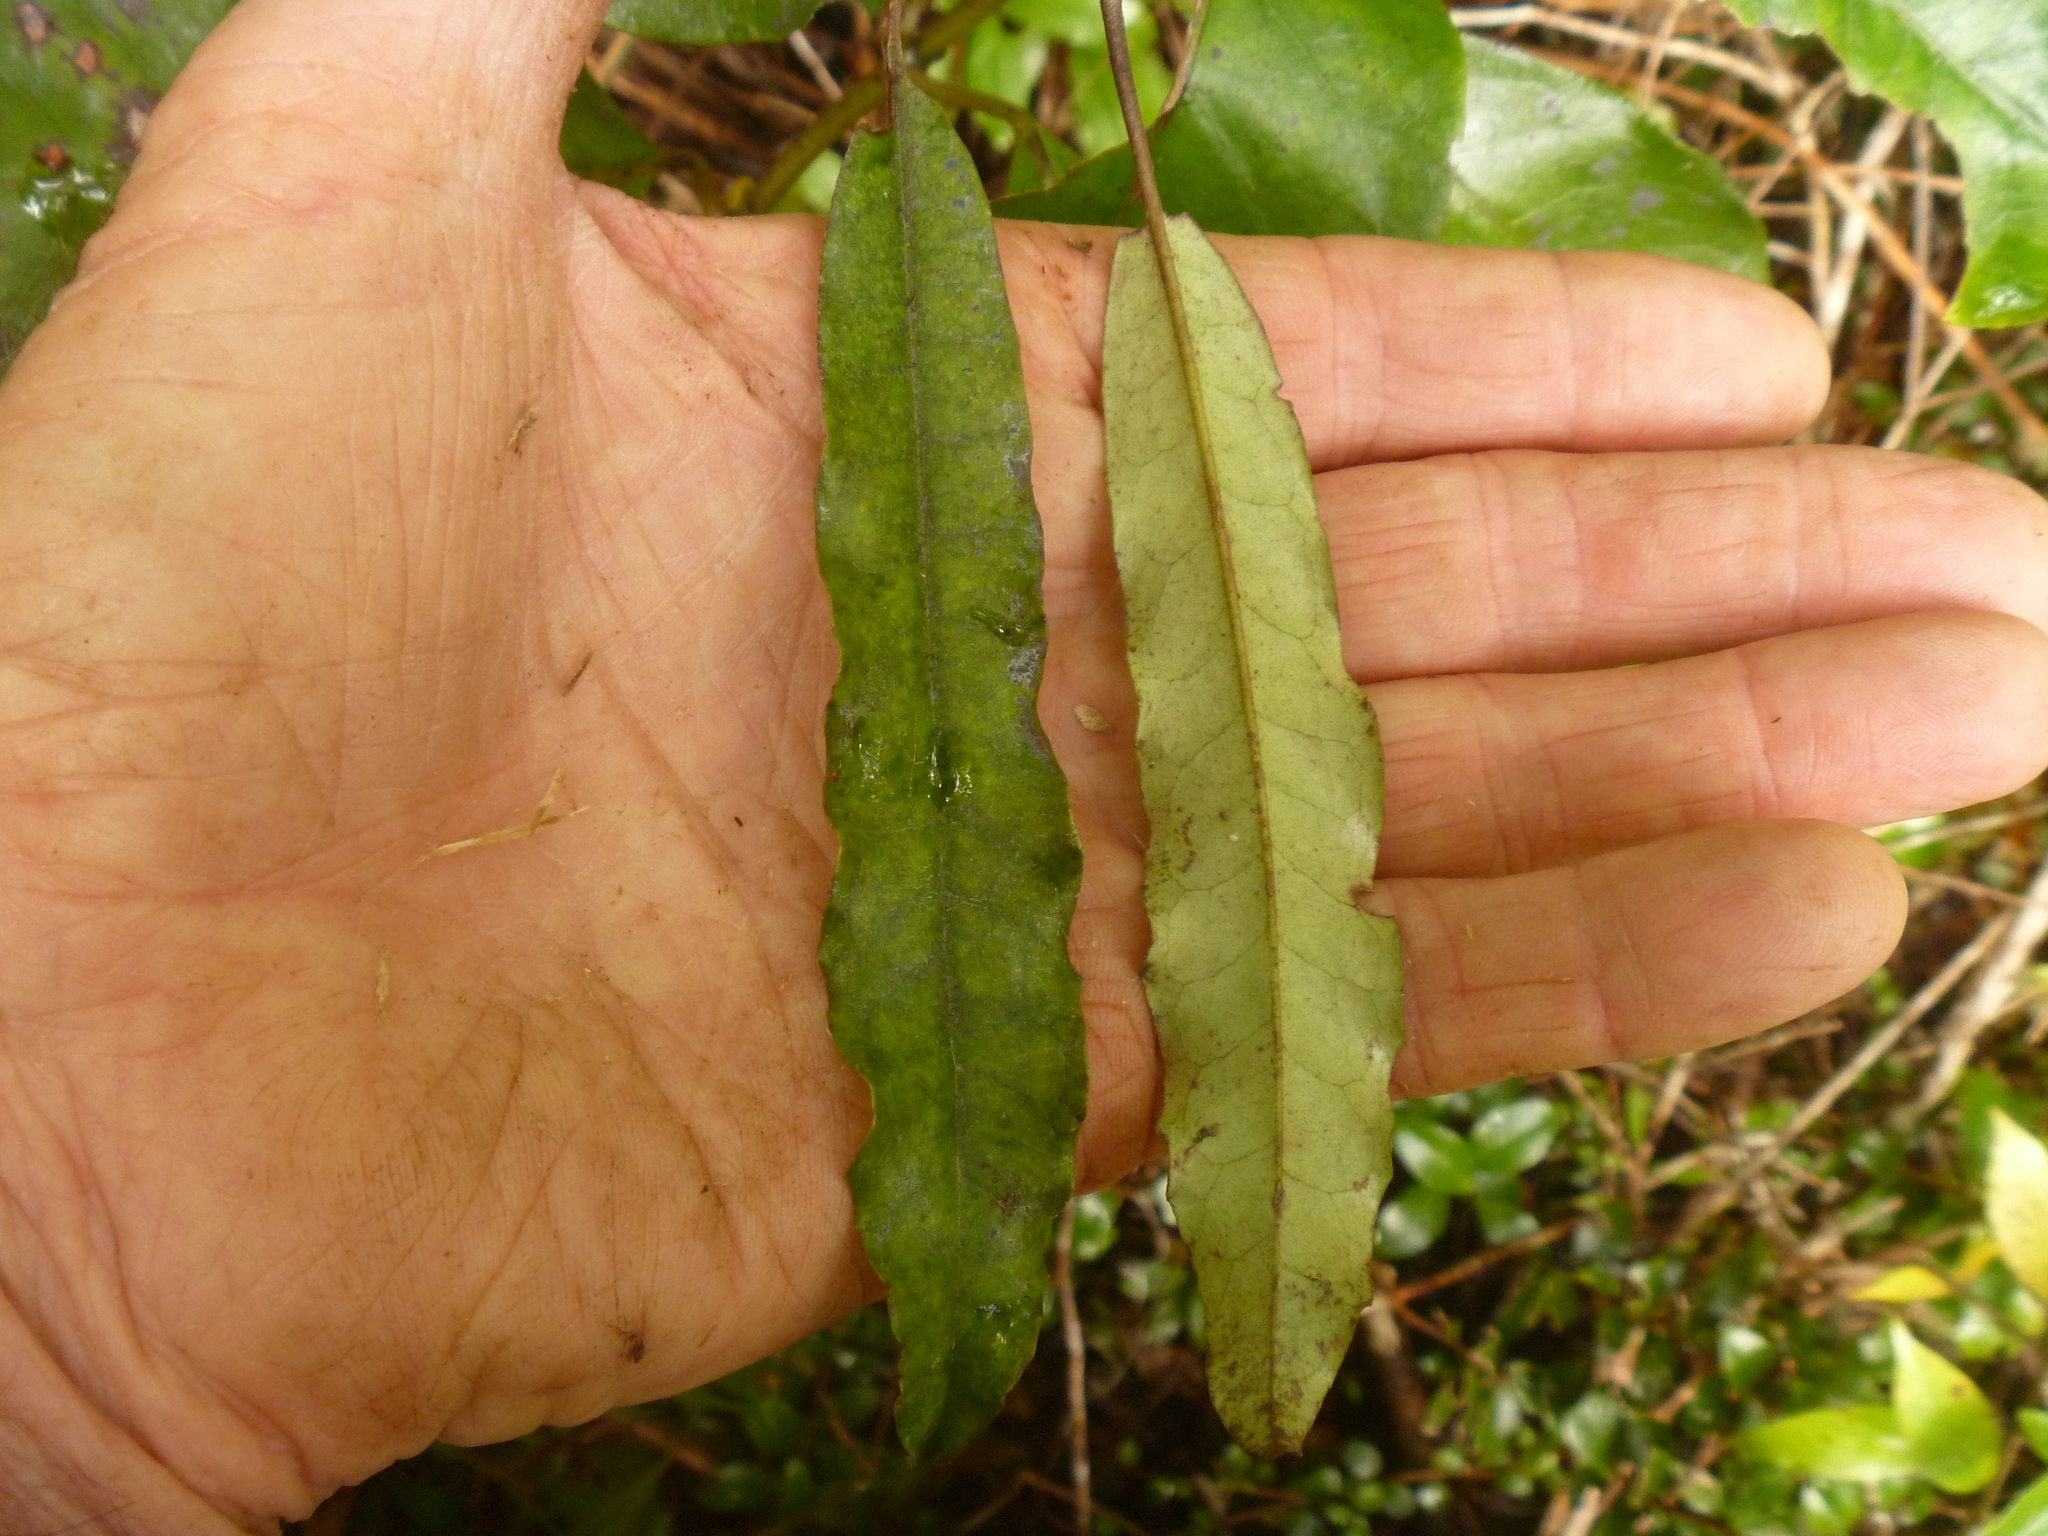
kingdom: Plantae
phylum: Tracheophyta
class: Magnoliopsida
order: Paracryphiales
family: Paracryphiaceae
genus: Quintinia
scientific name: Quintinia serrata
